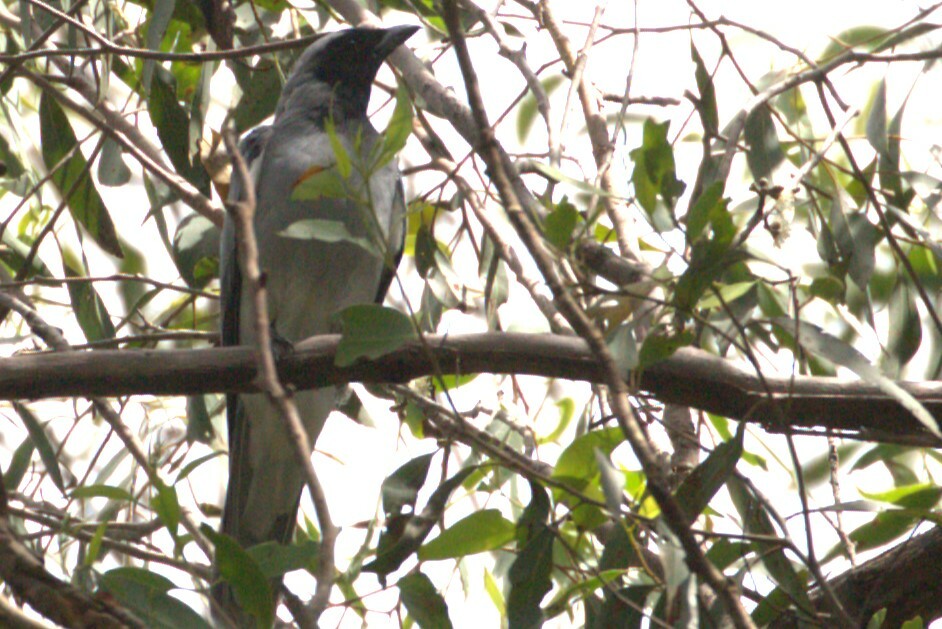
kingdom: Animalia
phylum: Chordata
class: Aves
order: Passeriformes
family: Campephagidae
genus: Coracina
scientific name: Coracina novaehollandiae
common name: Black-faced cuckooshrike
